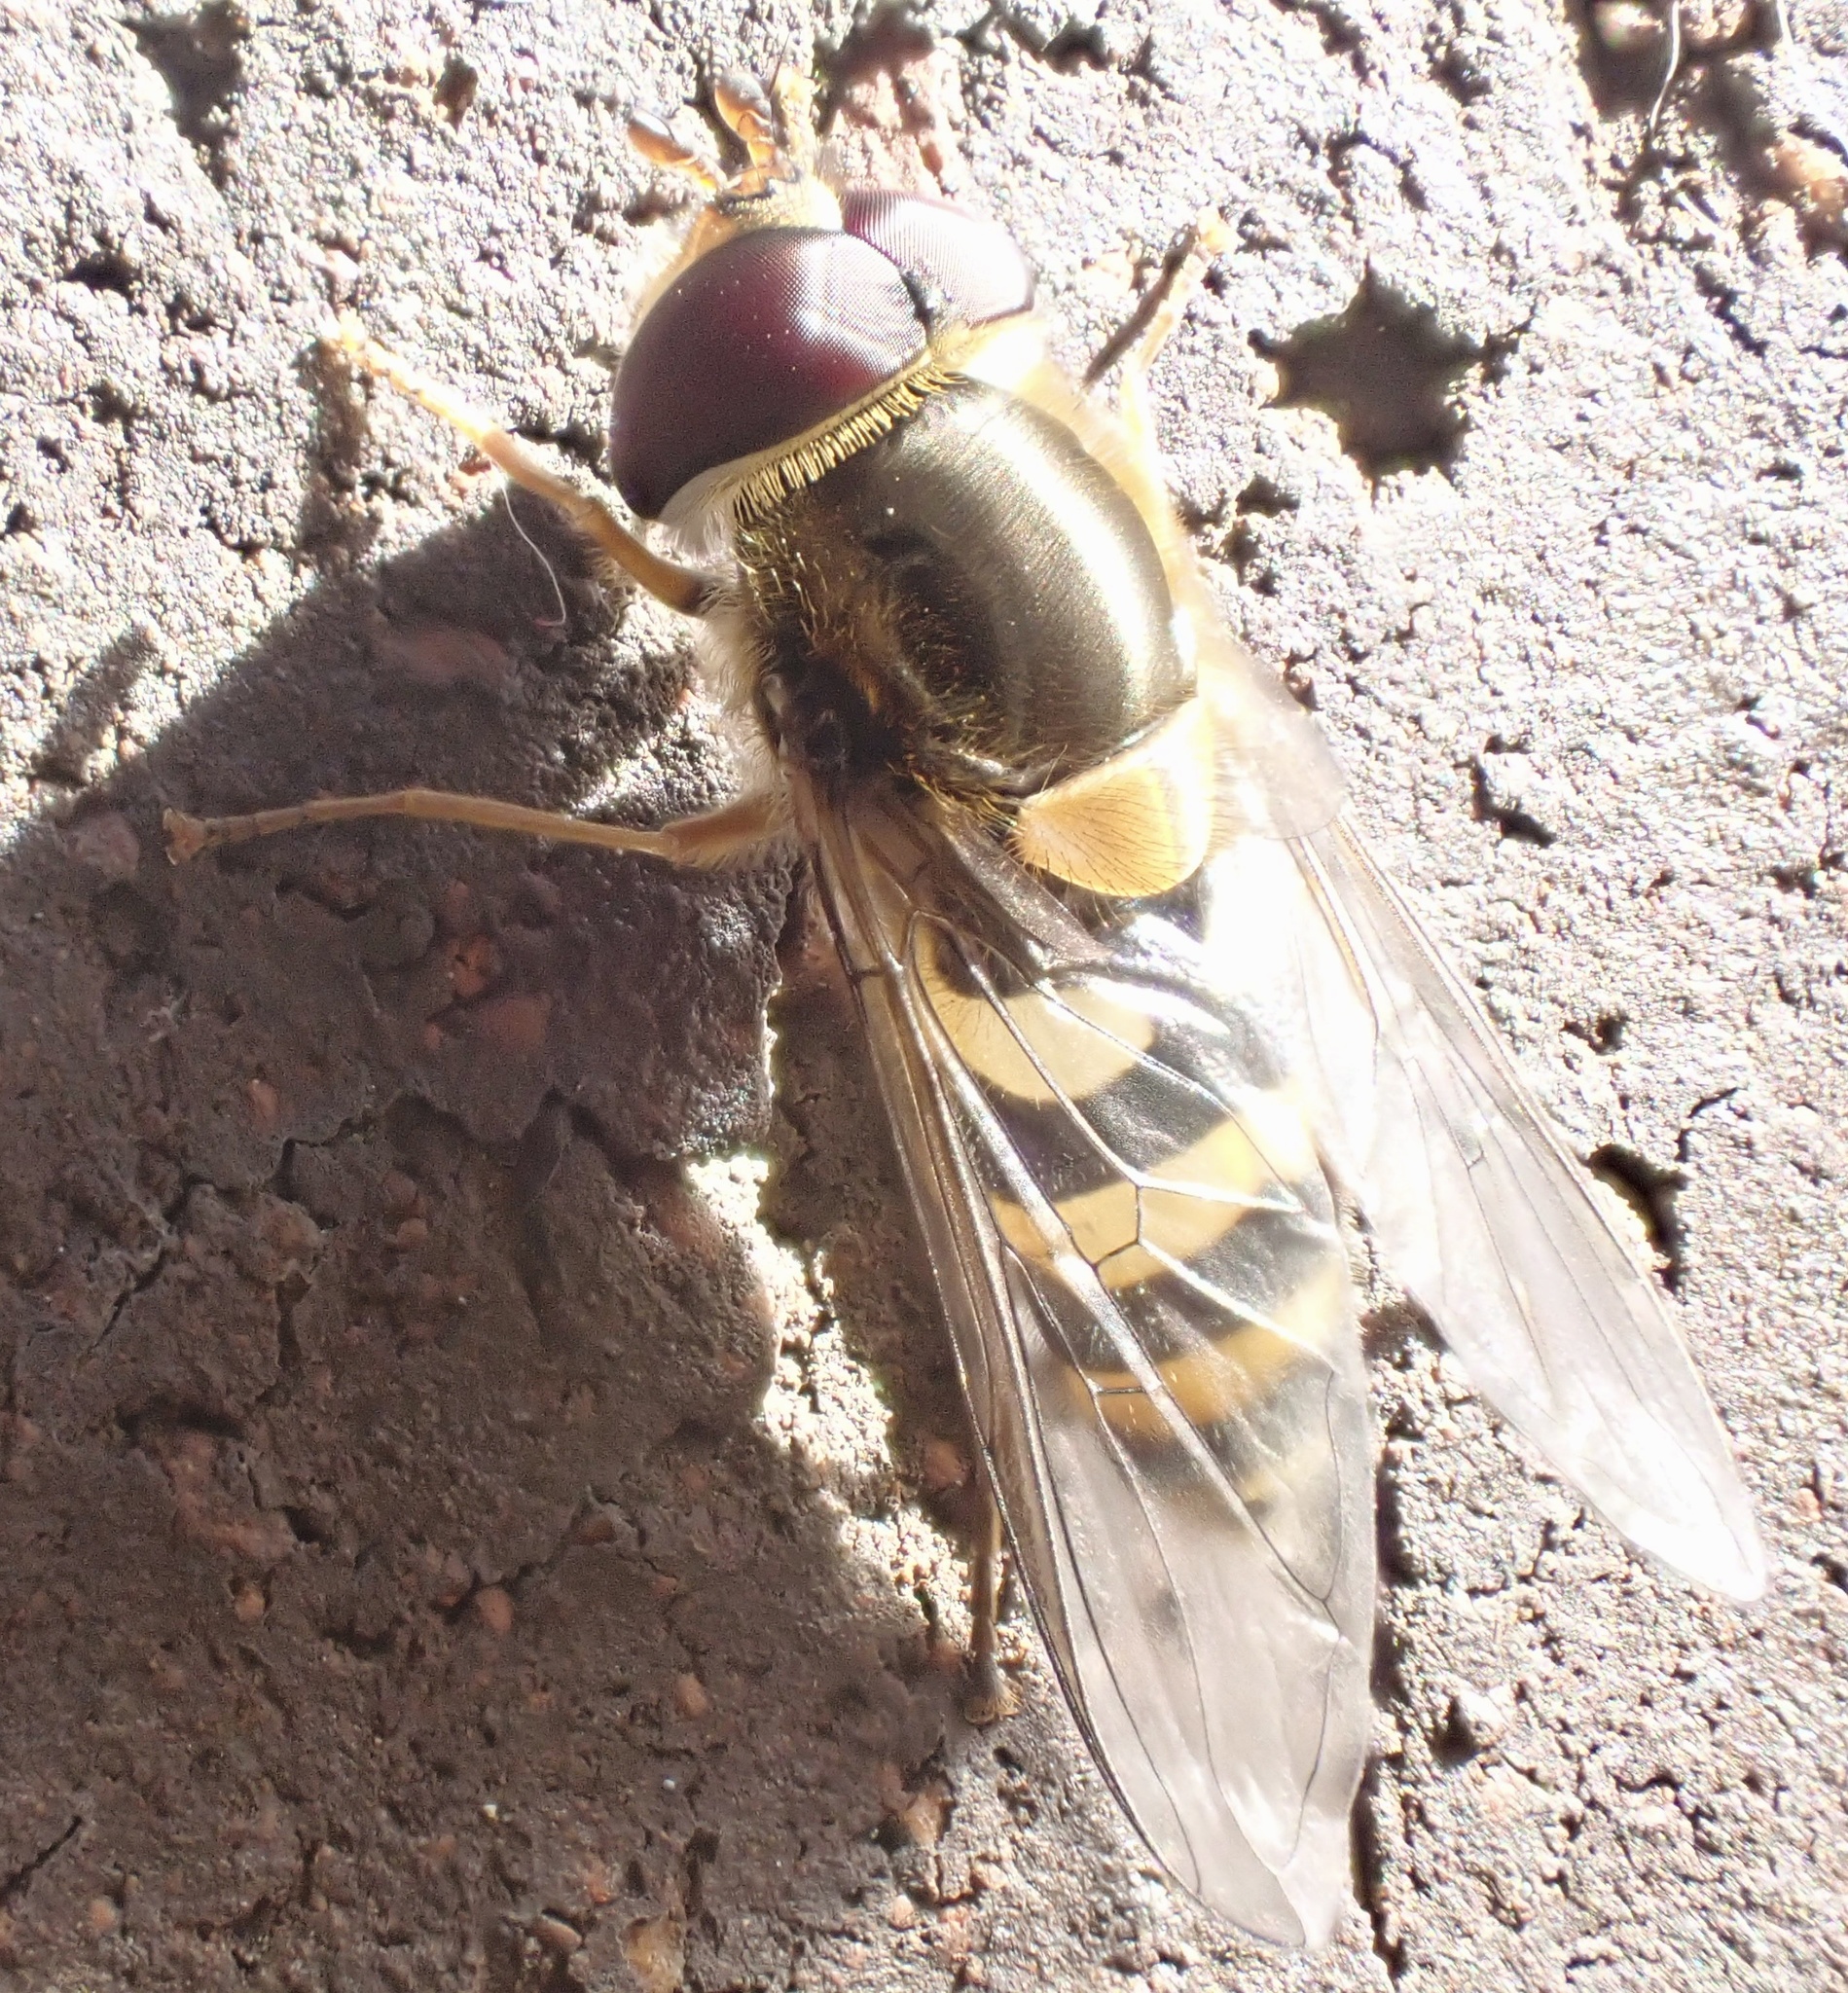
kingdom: Animalia
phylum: Arthropoda
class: Insecta
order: Diptera
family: Syrphidae
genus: Syrphus
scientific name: Syrphus
